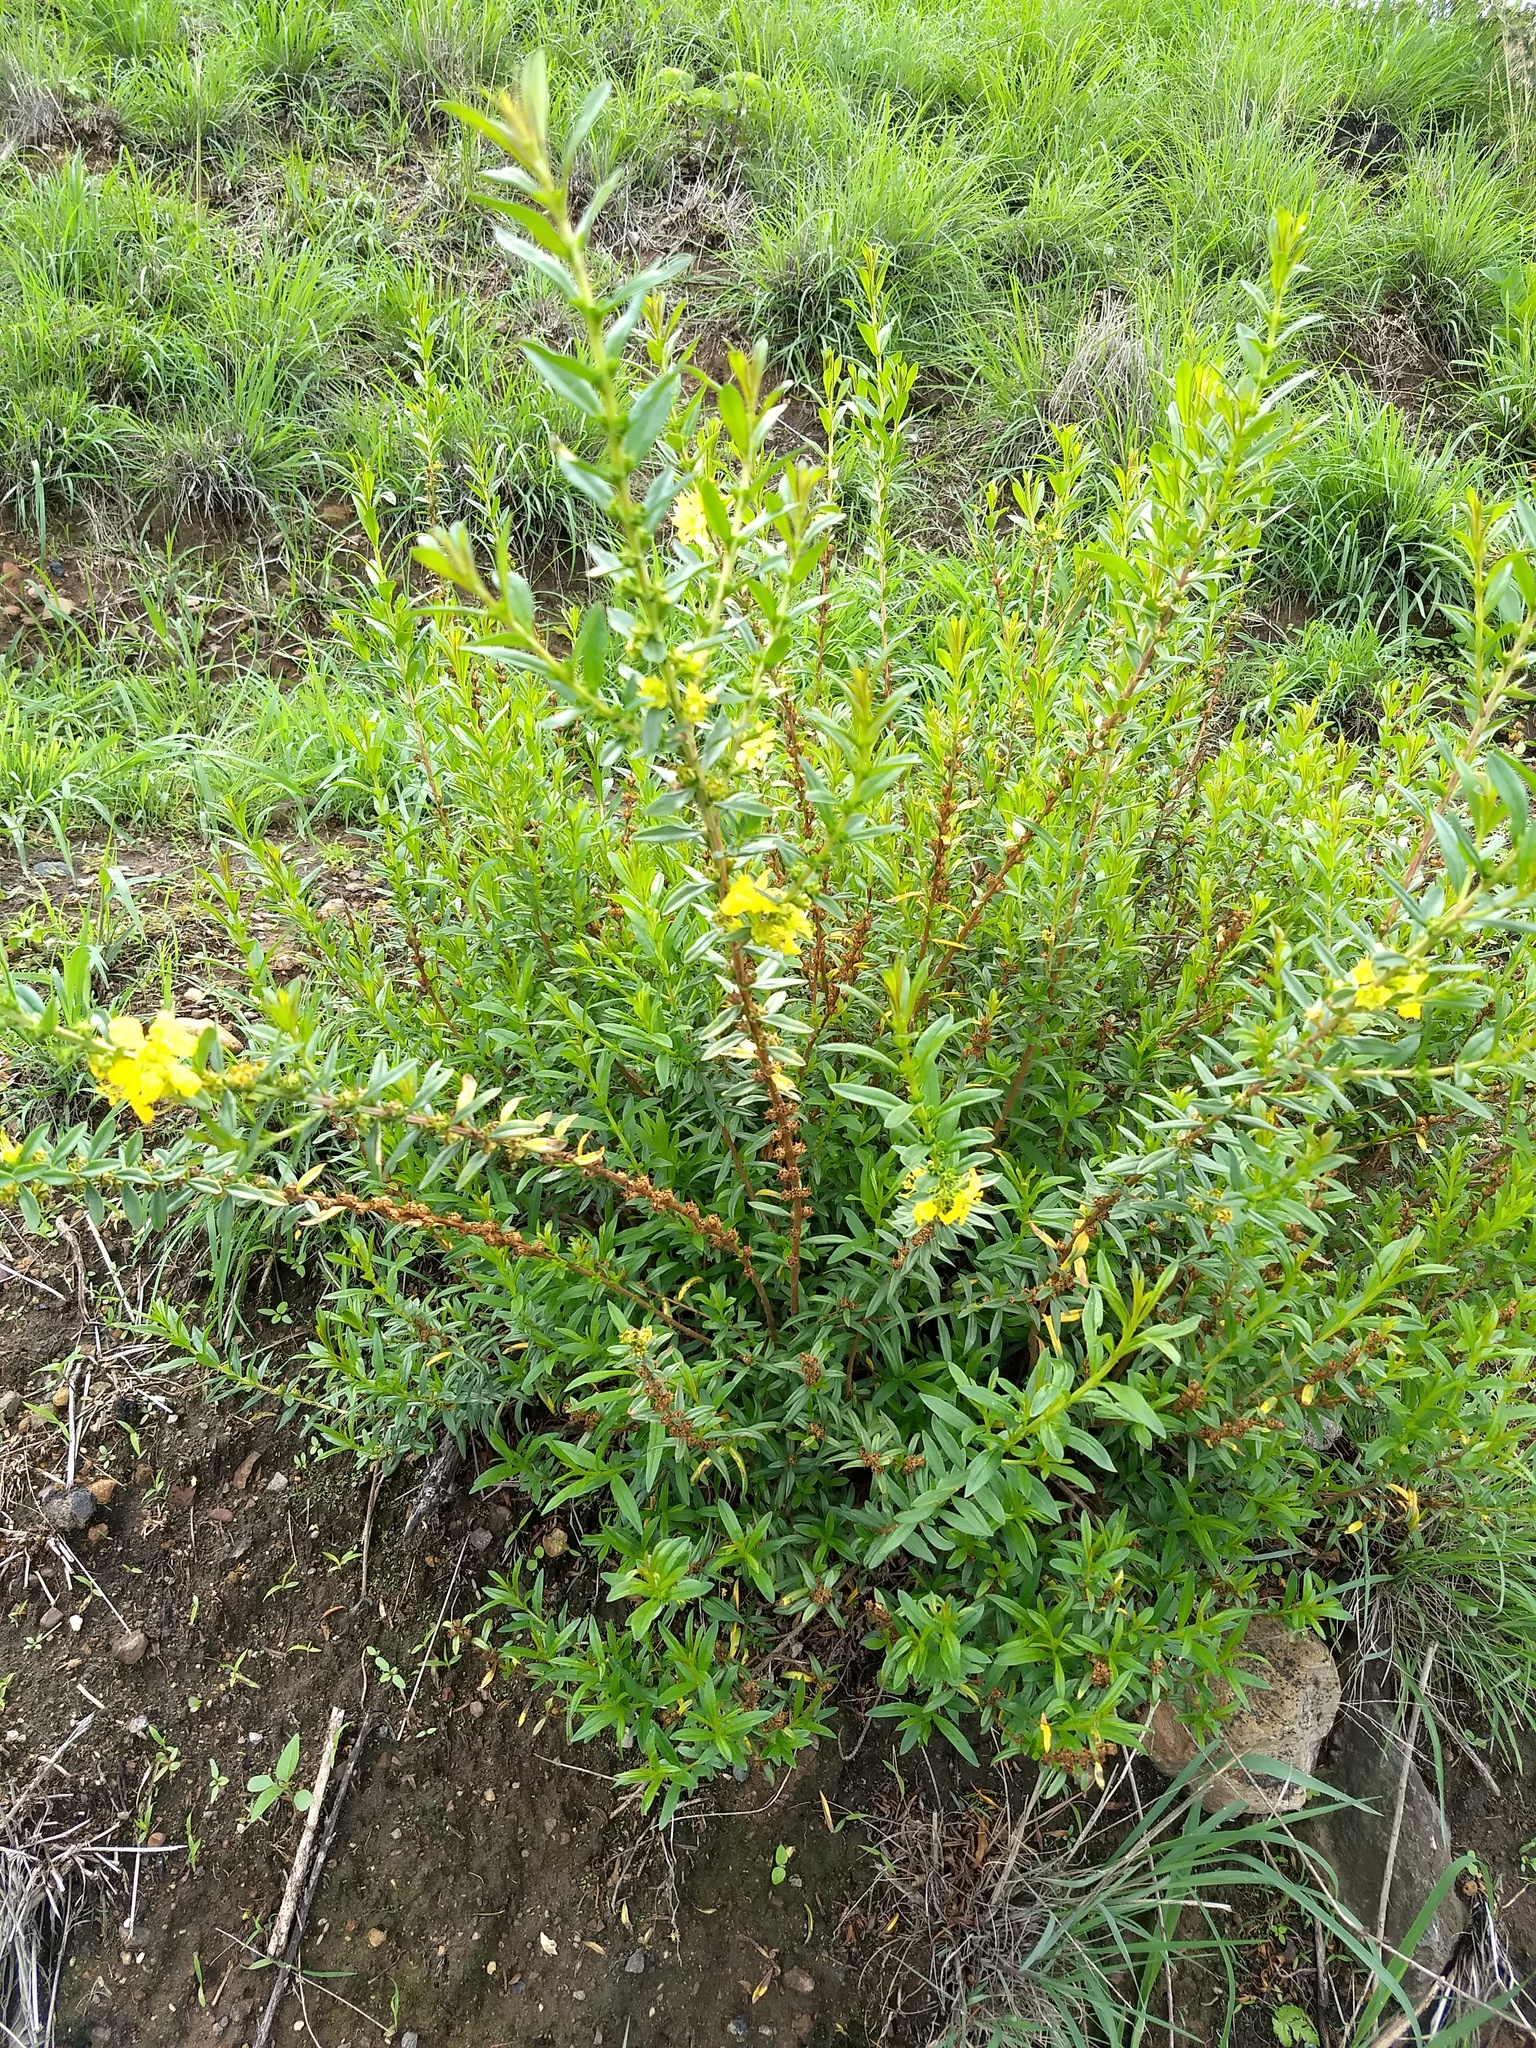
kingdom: Plantae
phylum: Tracheophyta
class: Magnoliopsida
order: Myrtales
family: Lythraceae
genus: Heimia
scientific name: Heimia salicifolia
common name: Willow-leaf heimia
